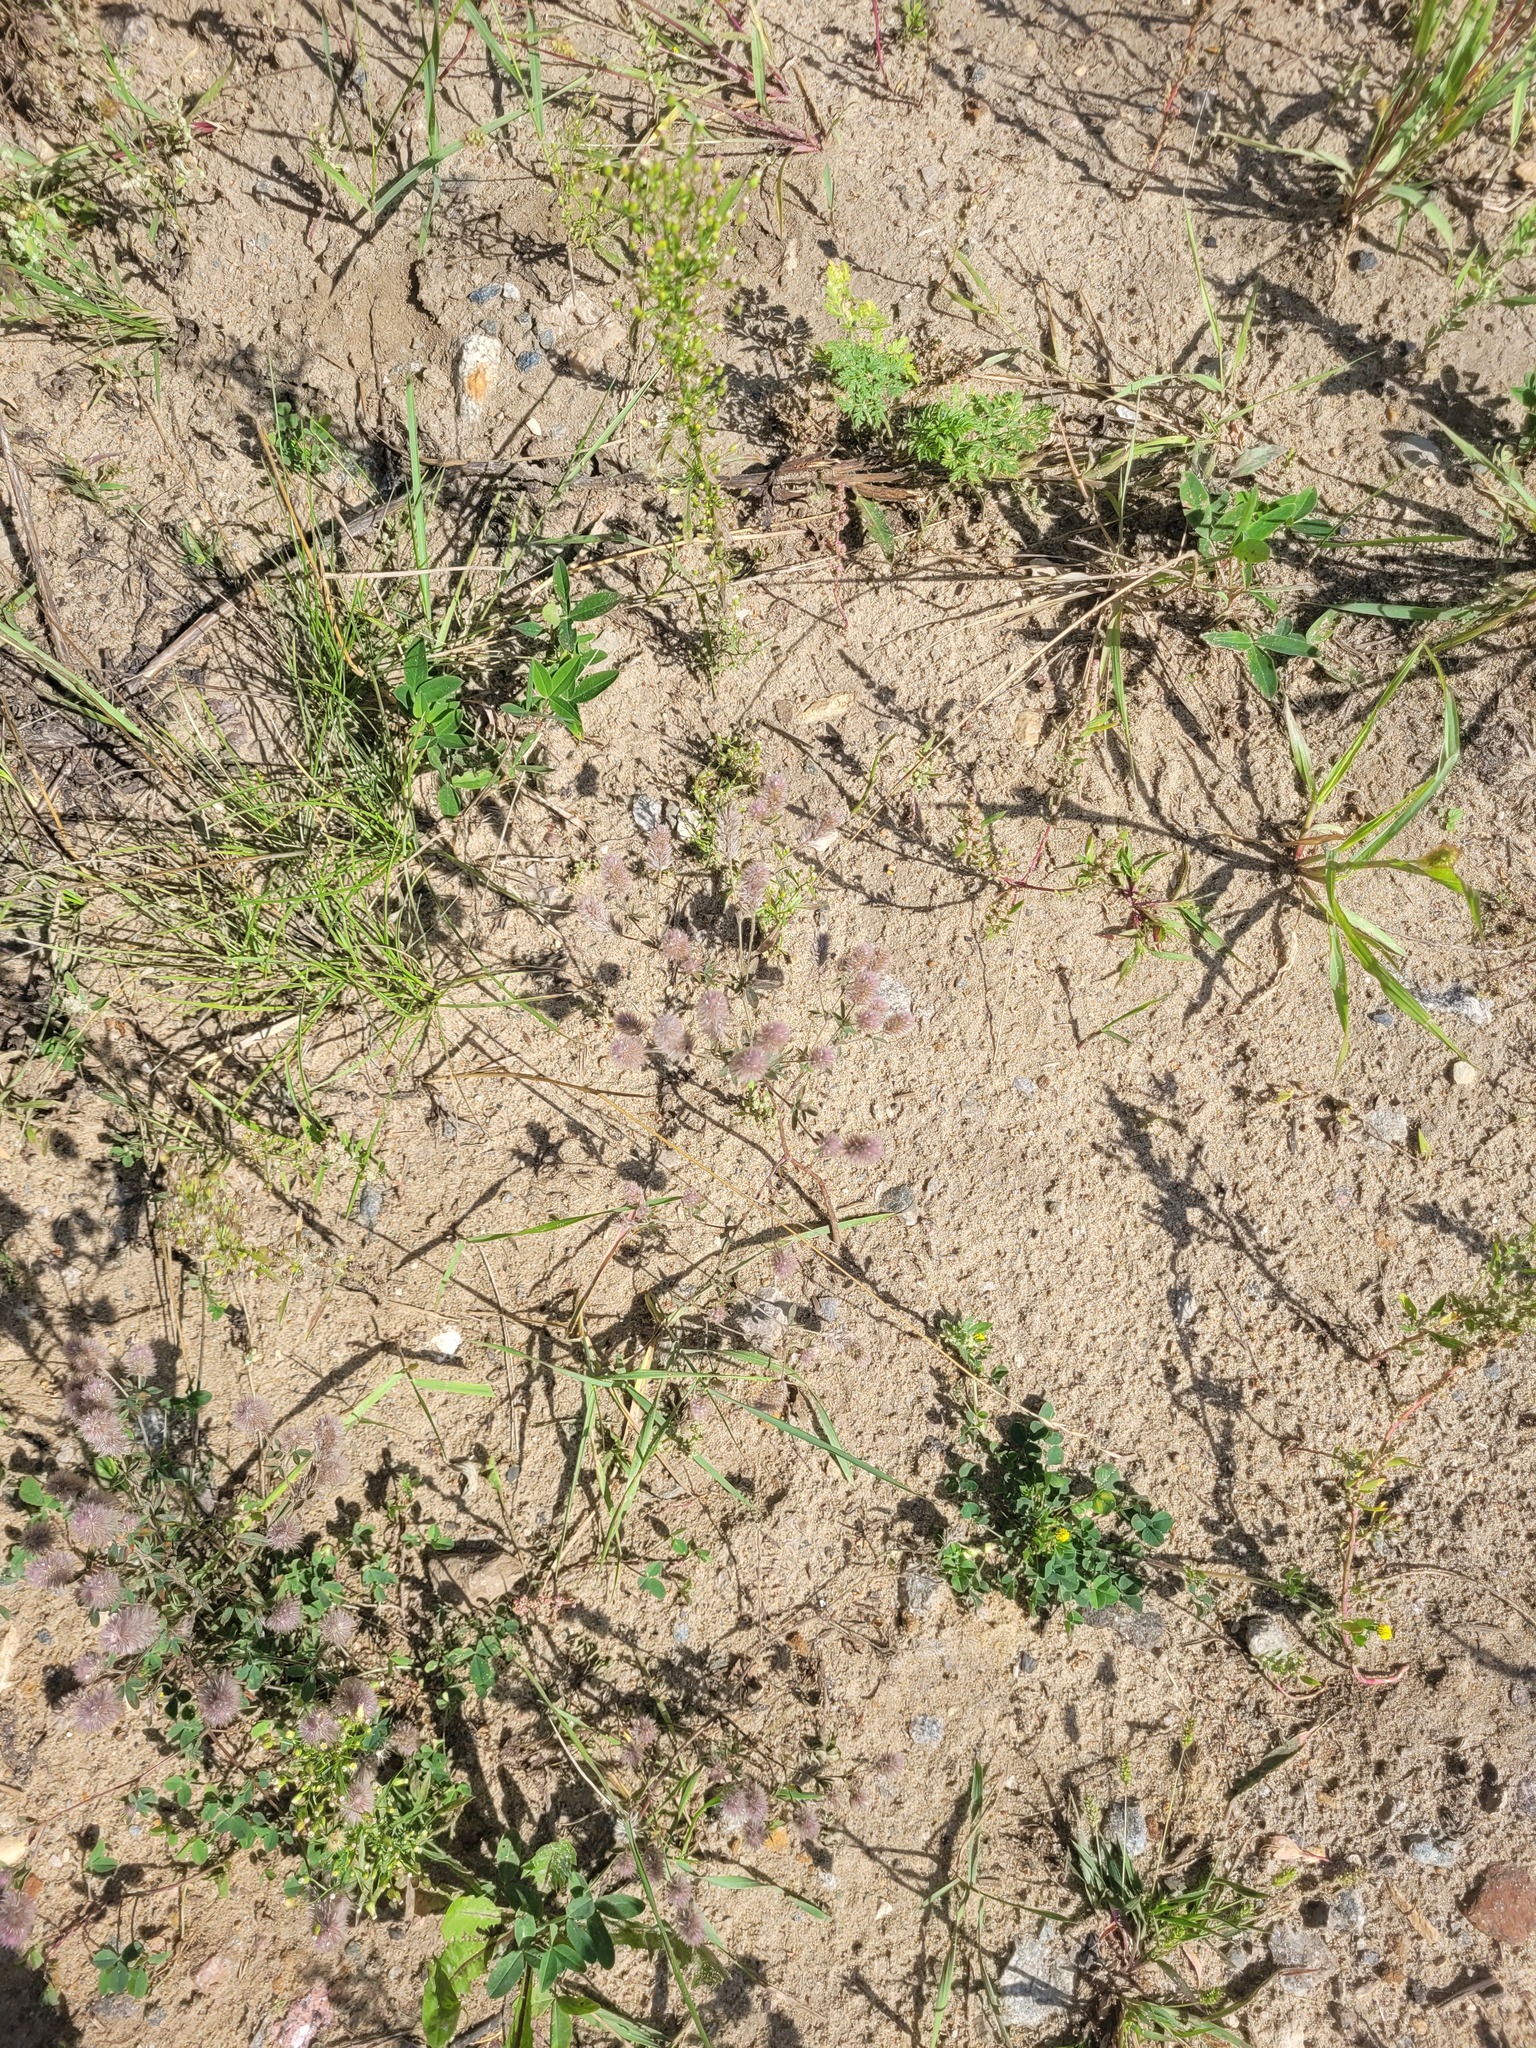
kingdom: Plantae
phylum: Tracheophyta
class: Magnoliopsida
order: Fabales
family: Fabaceae
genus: Trifolium
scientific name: Trifolium arvense
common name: Hare's-foot clover
